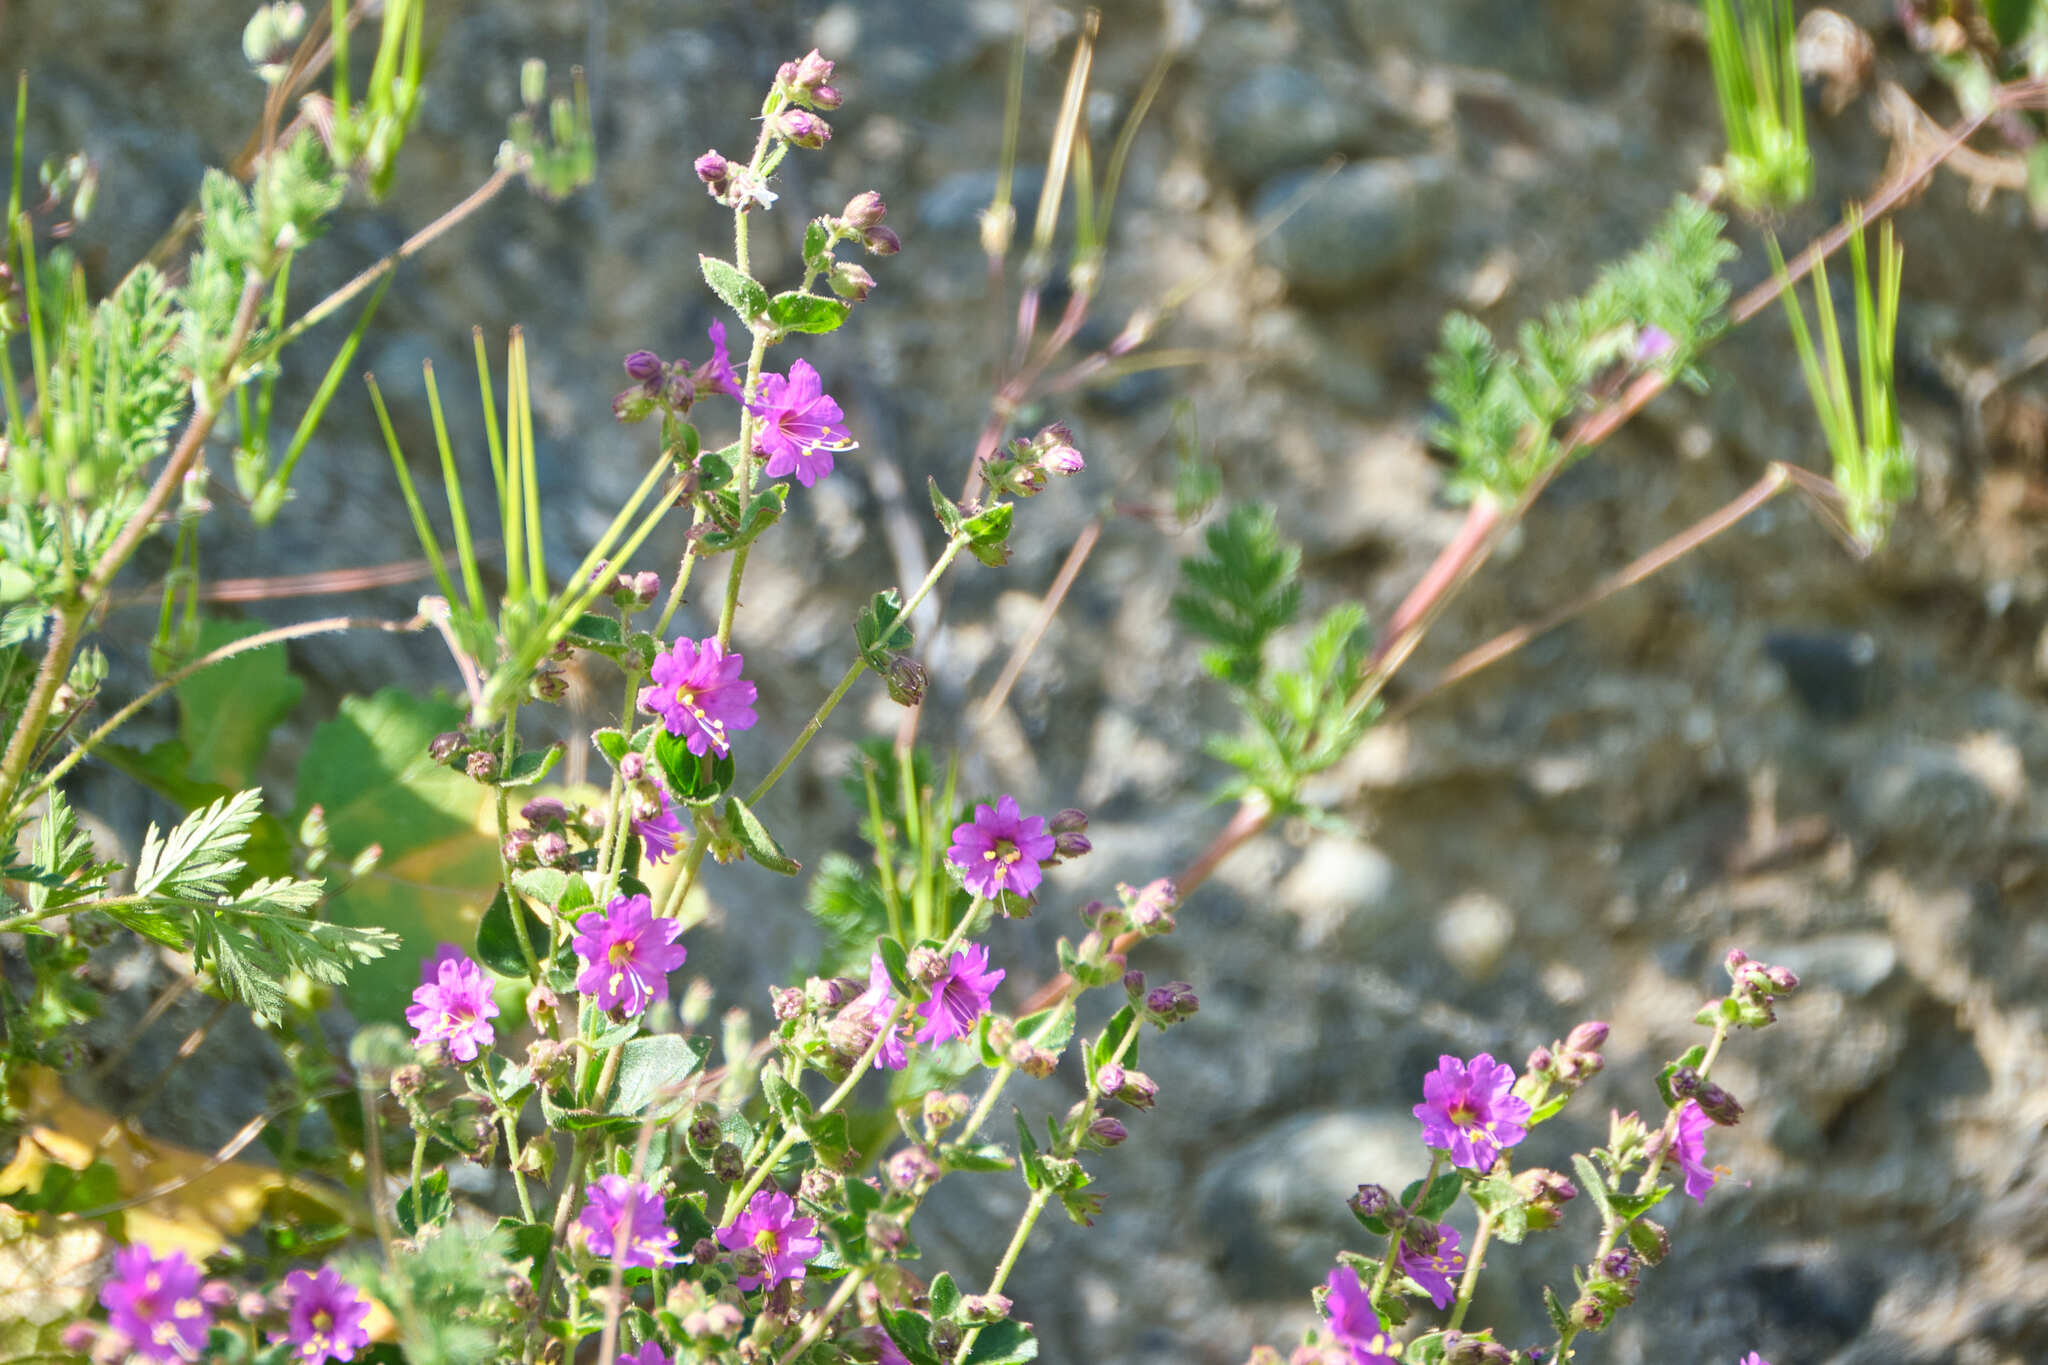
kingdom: Plantae
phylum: Tracheophyta
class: Magnoliopsida
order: Caryophyllales
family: Nyctaginaceae
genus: Mirabilis
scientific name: Mirabilis laevis
